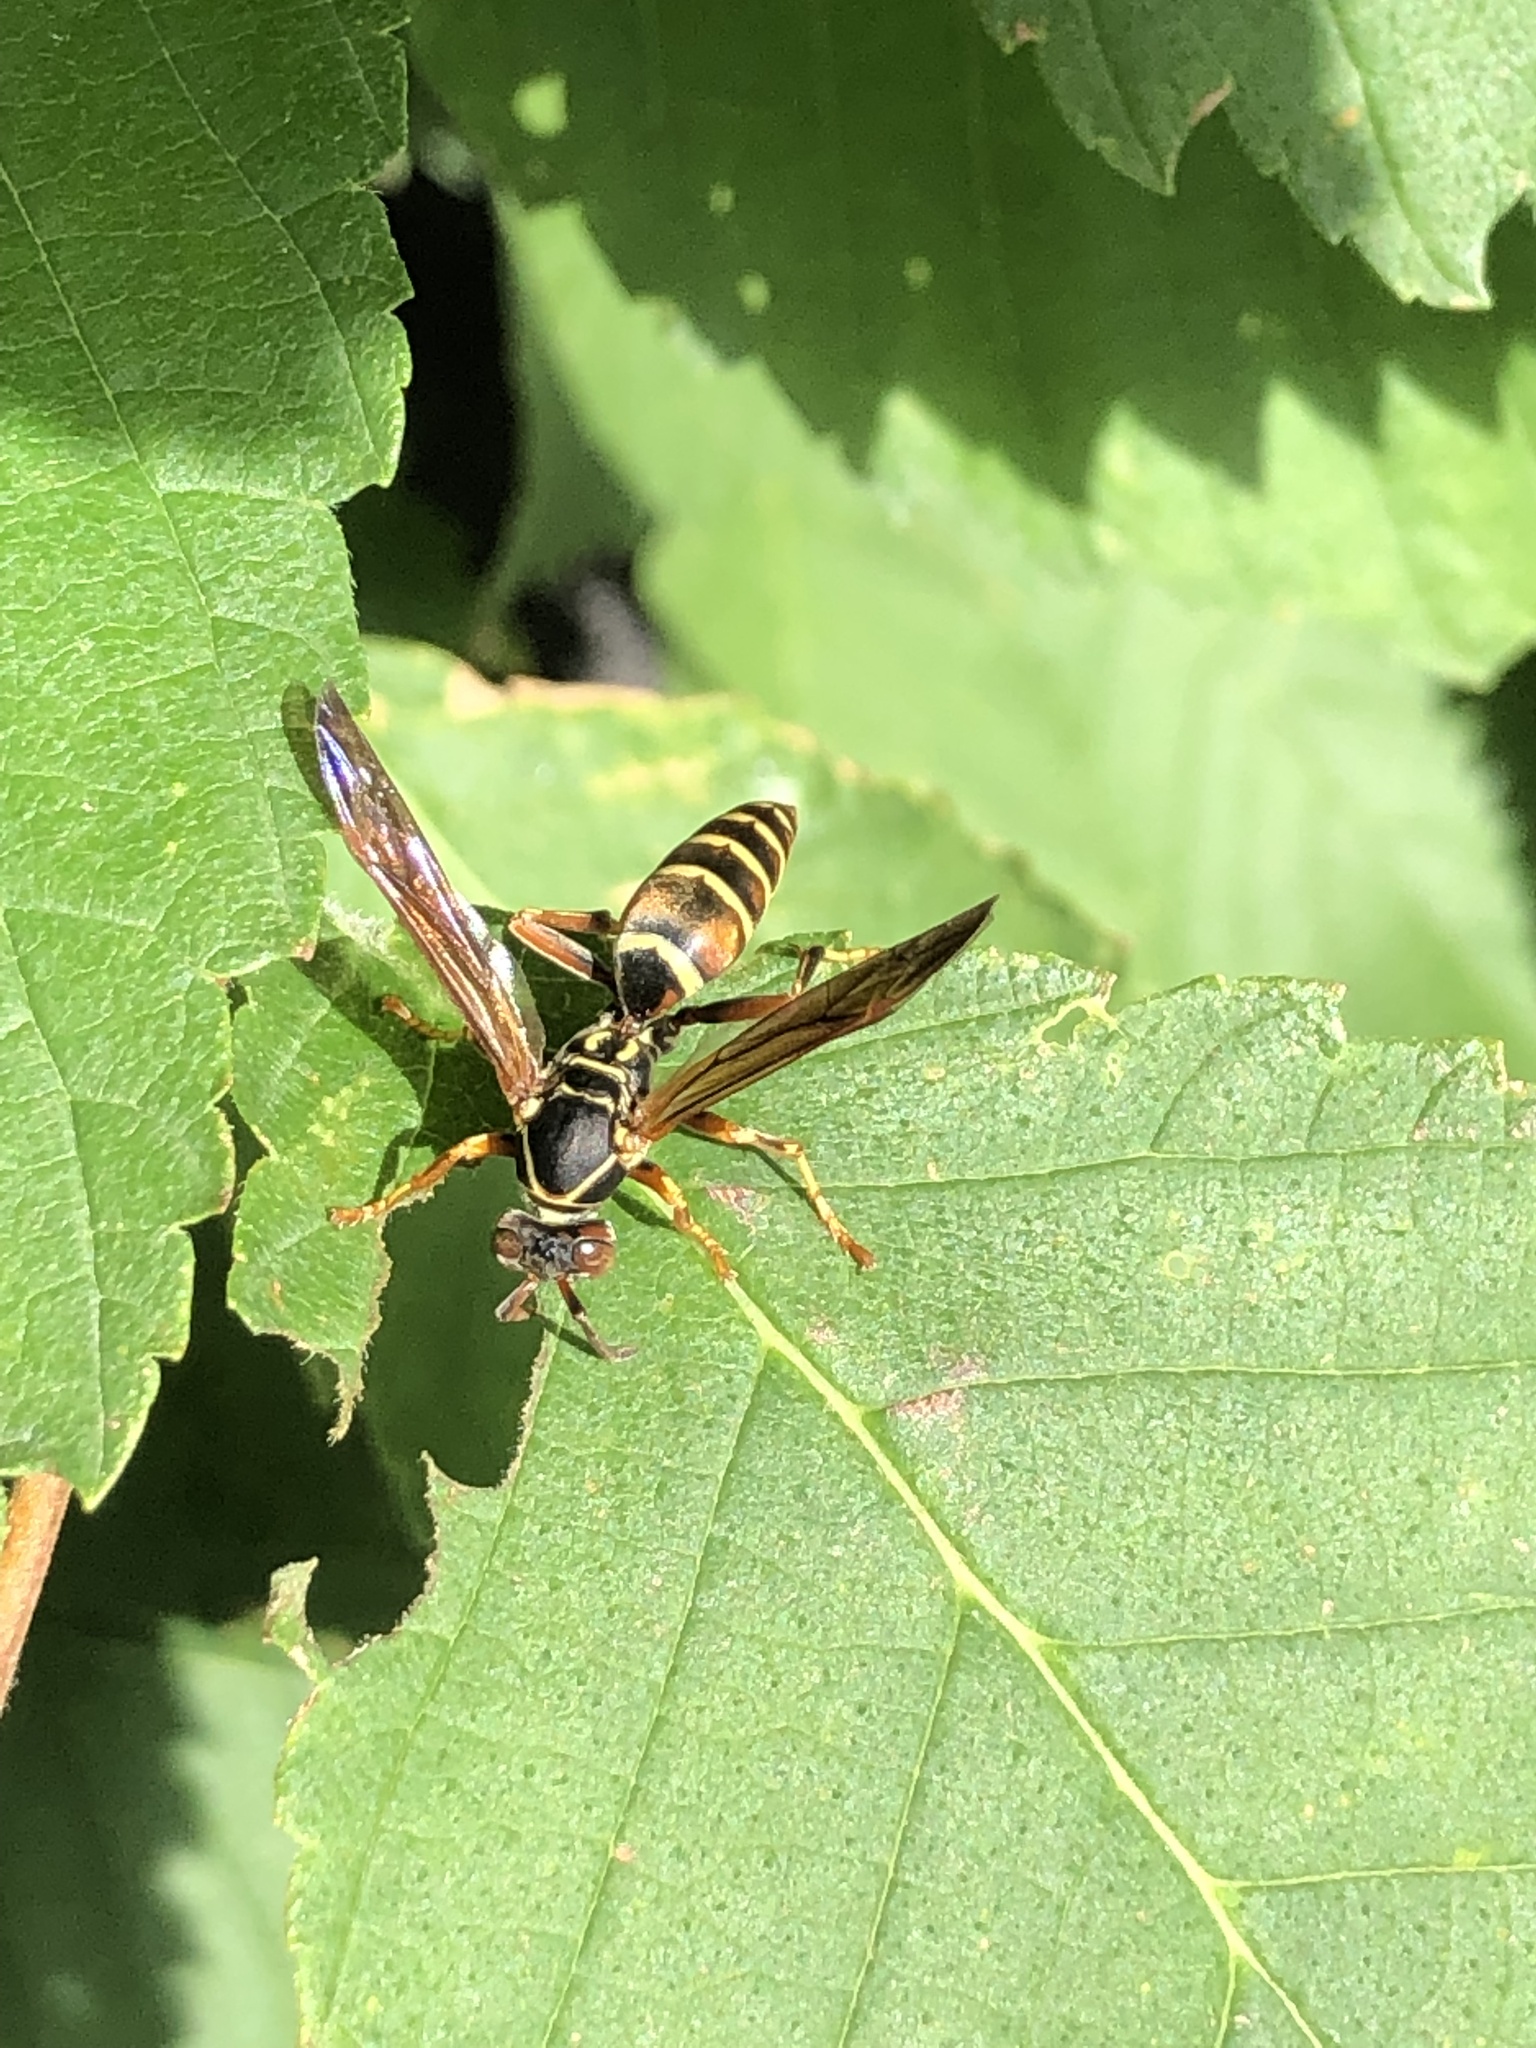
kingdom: Animalia
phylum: Arthropoda
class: Insecta
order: Hymenoptera
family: Eumenidae
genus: Polistes
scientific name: Polistes fuscatus
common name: Dark paper wasp
